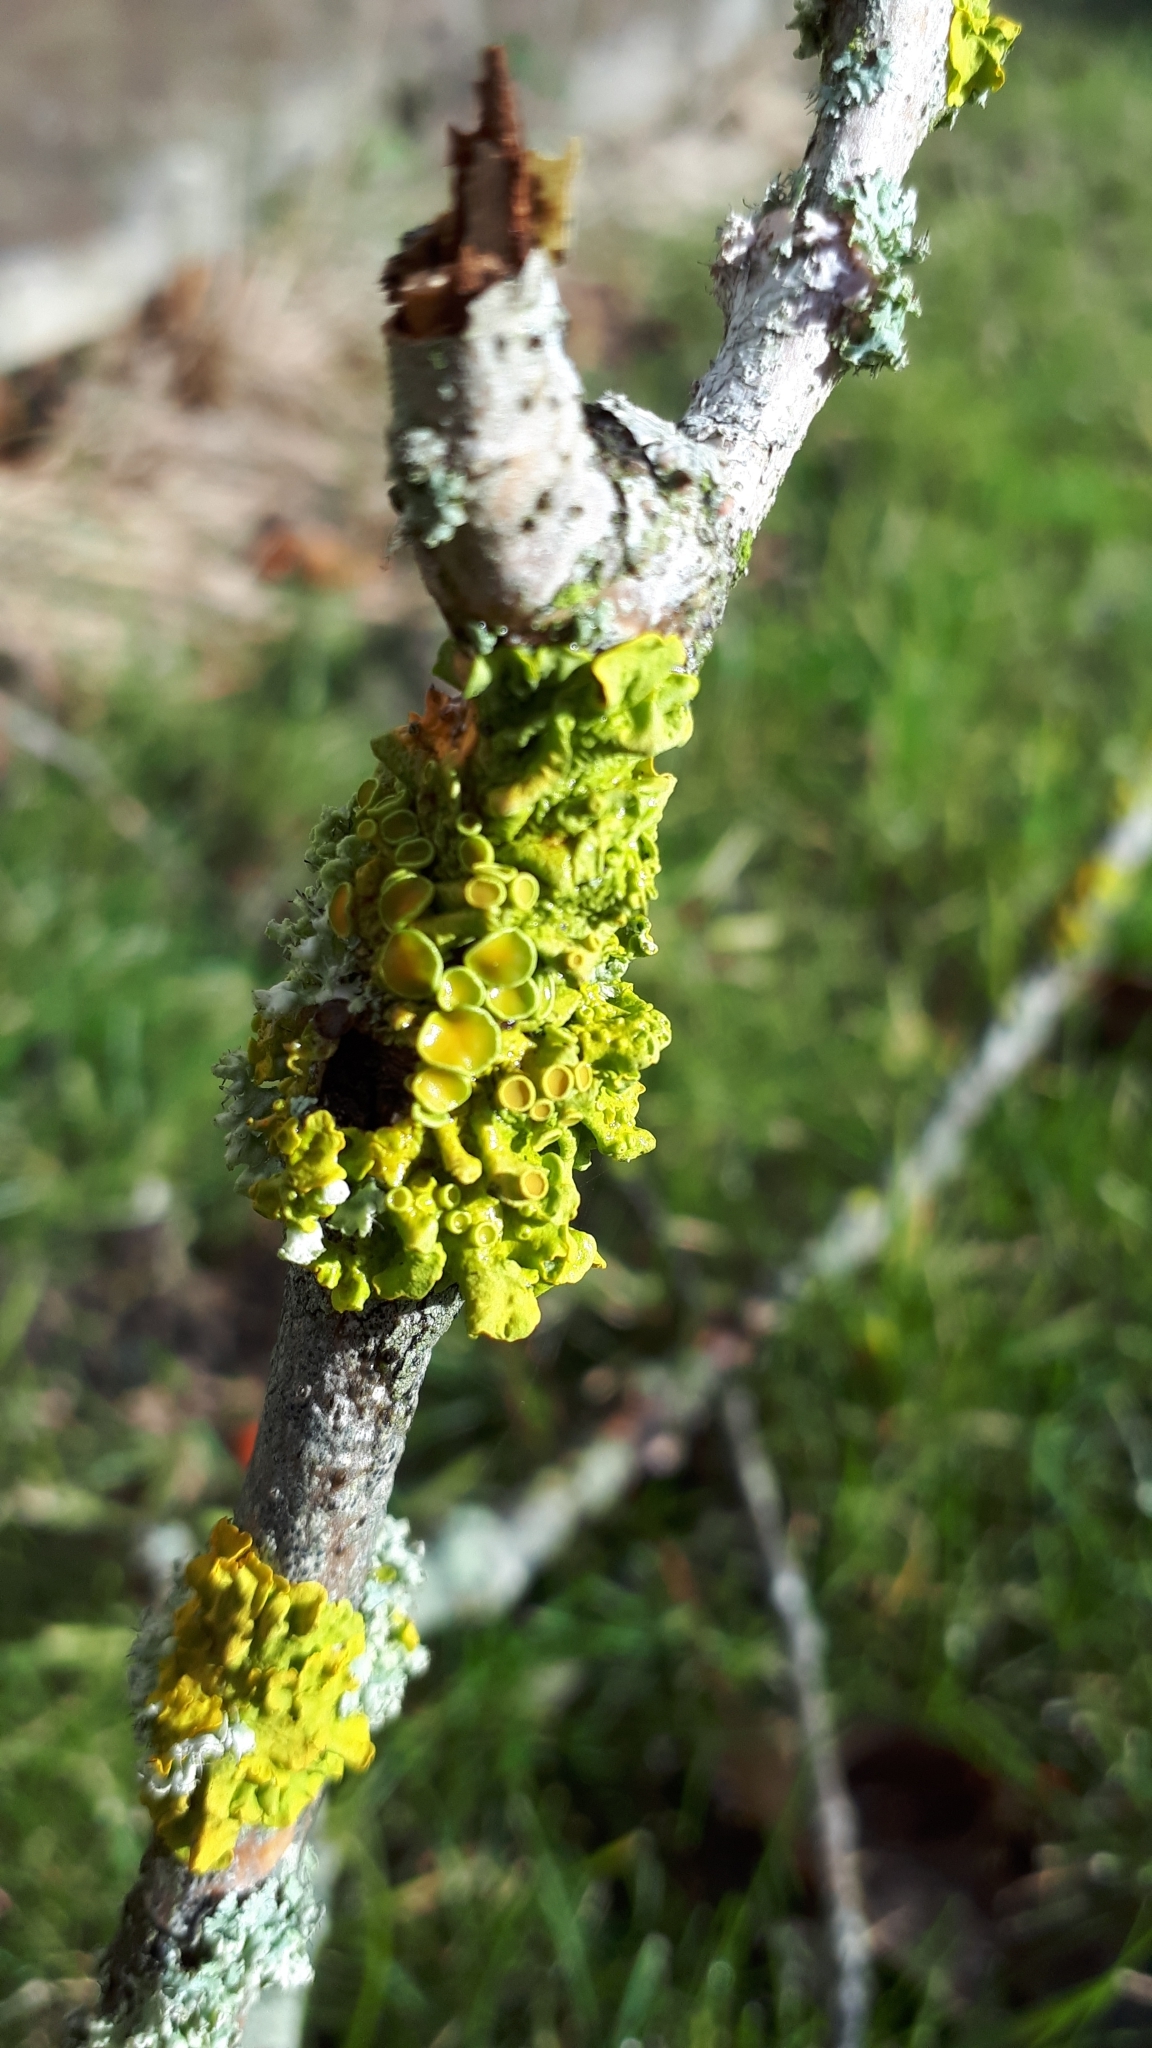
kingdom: Fungi
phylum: Ascomycota
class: Lecanoromycetes
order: Teloschistales
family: Teloschistaceae
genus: Xanthoria
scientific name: Xanthoria parietina
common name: Common orange lichen
